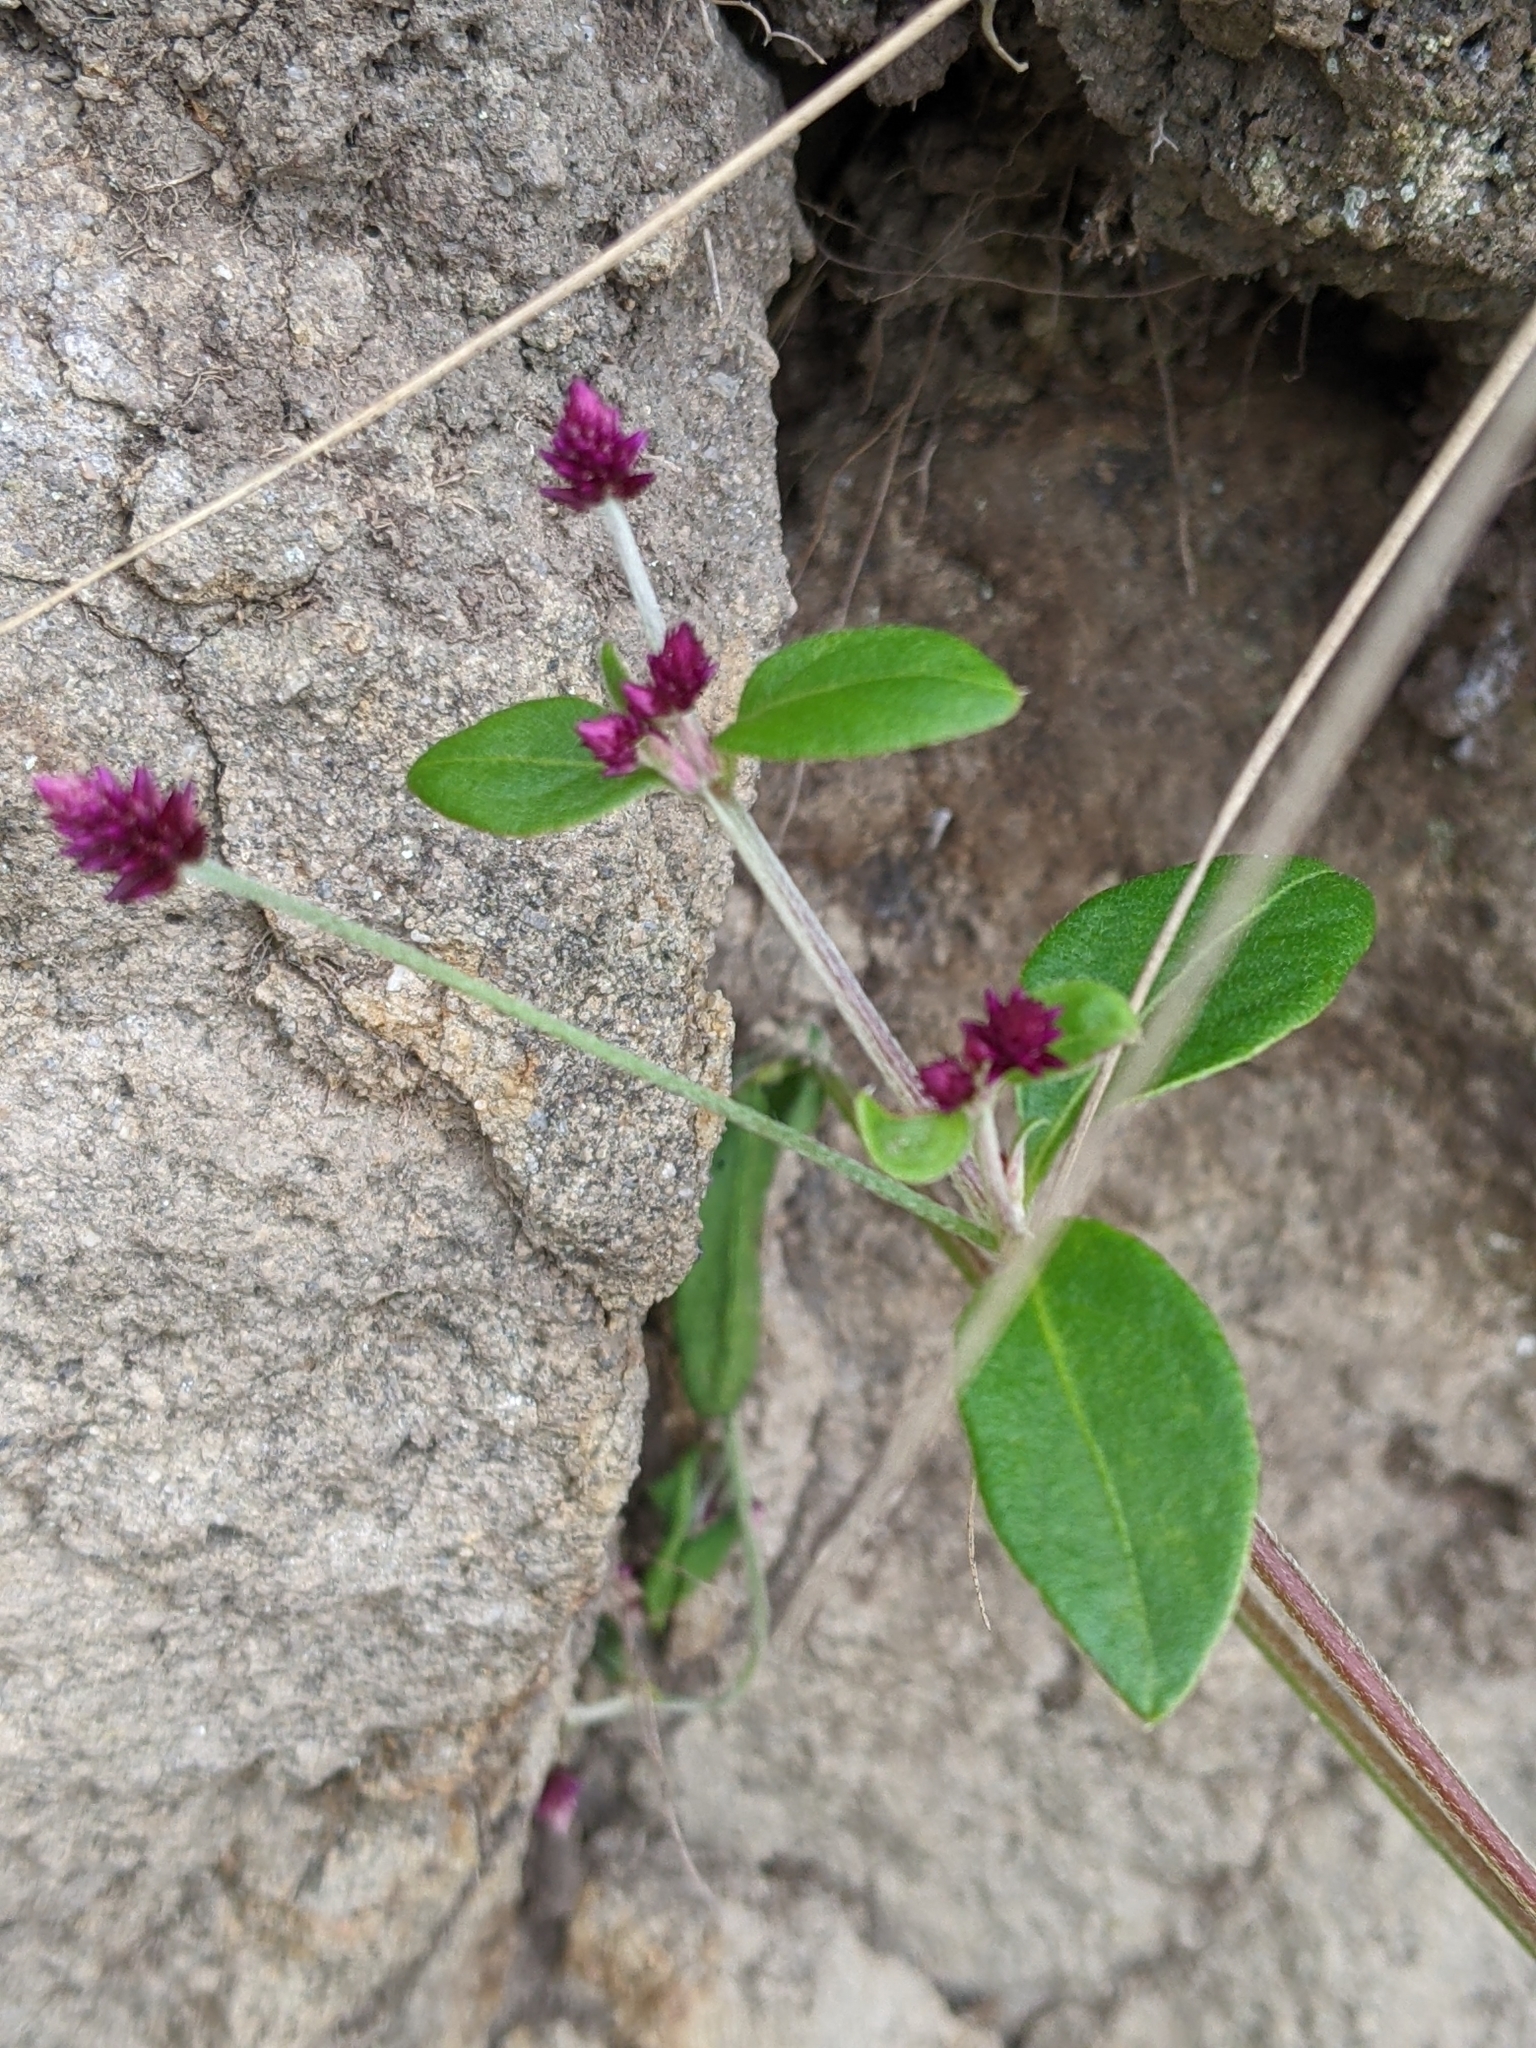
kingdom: Plantae
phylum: Tracheophyta
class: Magnoliopsida
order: Caryophyllales
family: Amaranthaceae
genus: Alternanthera
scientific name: Alternanthera porrigens
